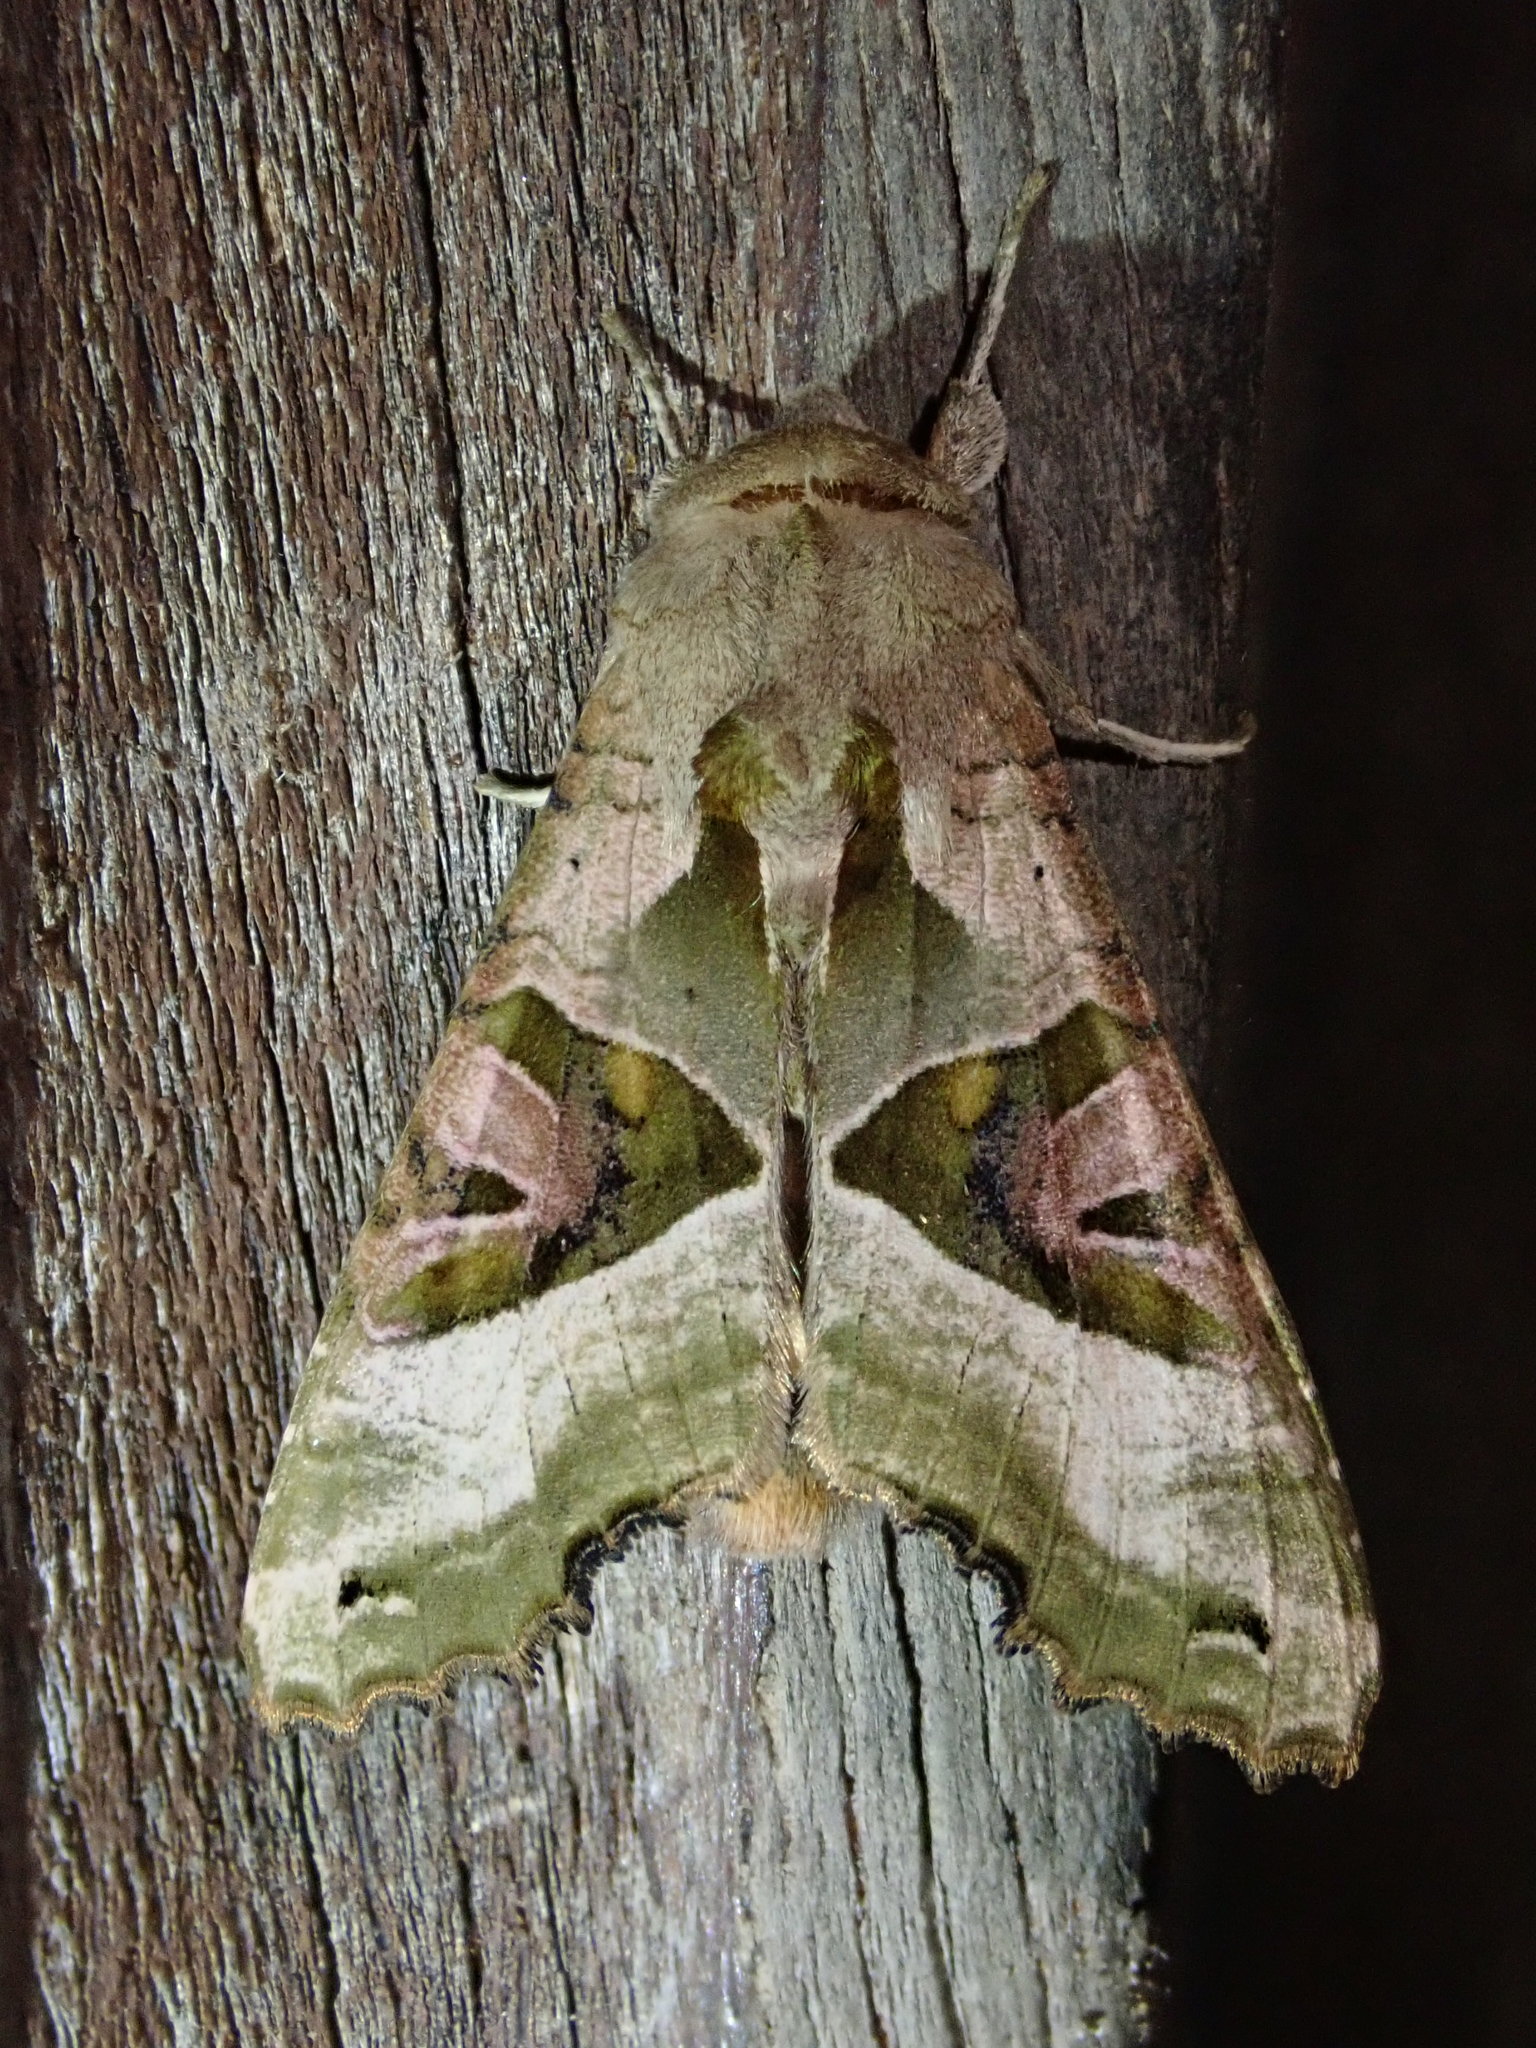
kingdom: Animalia
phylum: Arthropoda
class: Insecta
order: Lepidoptera
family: Noctuidae
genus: Phlogophora
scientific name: Phlogophora meticulosa
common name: Angle shades
